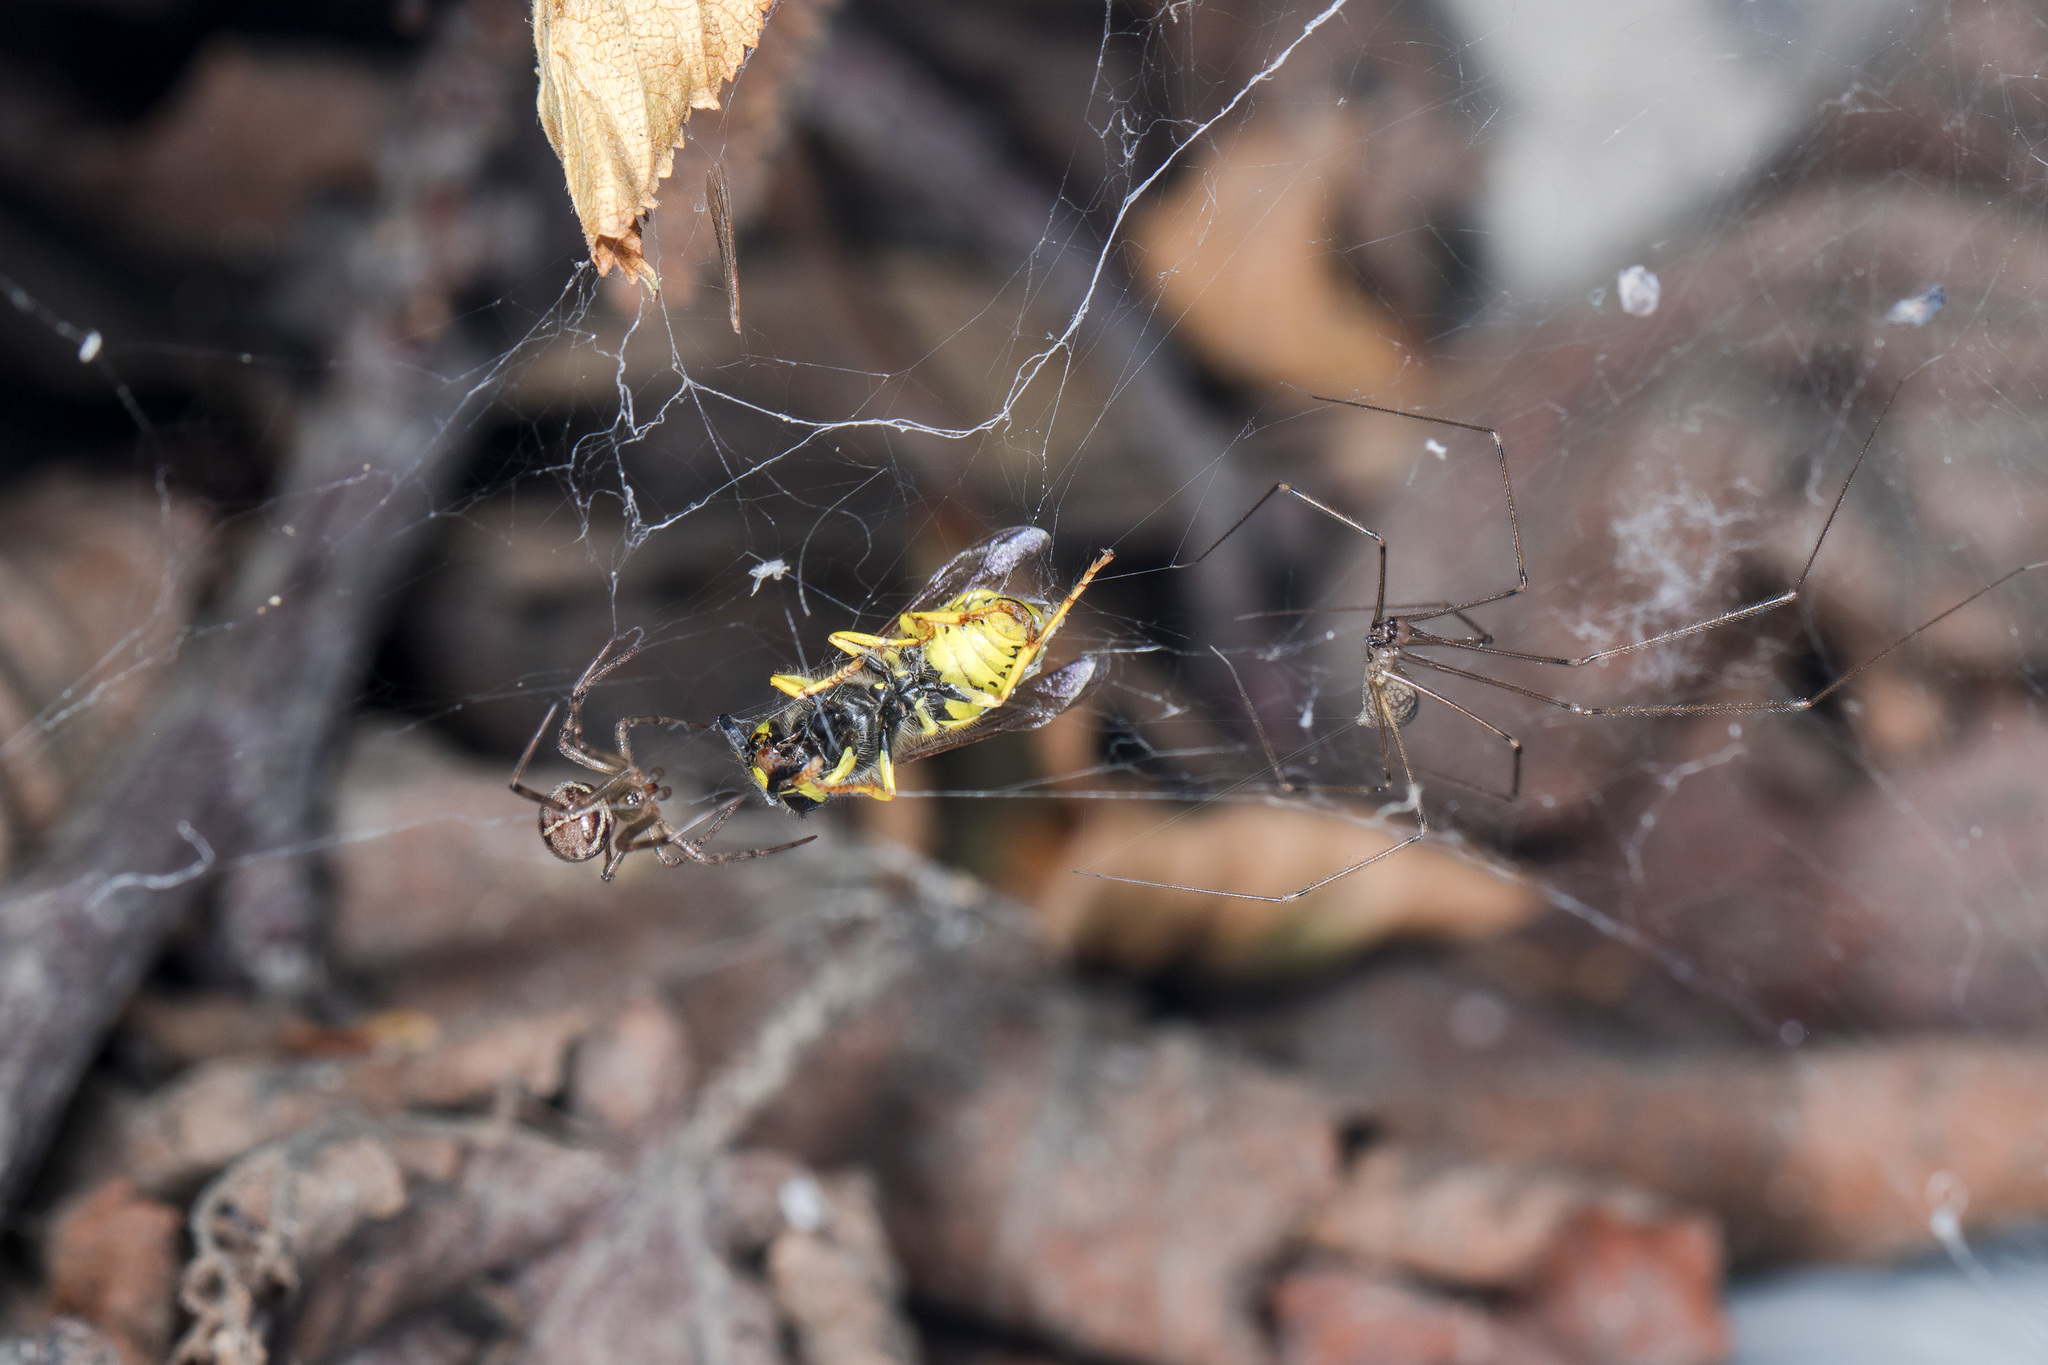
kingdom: Animalia
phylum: Arthropoda
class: Arachnida
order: Araneae
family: Theridiidae
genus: Steatoda
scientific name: Steatoda castanea
